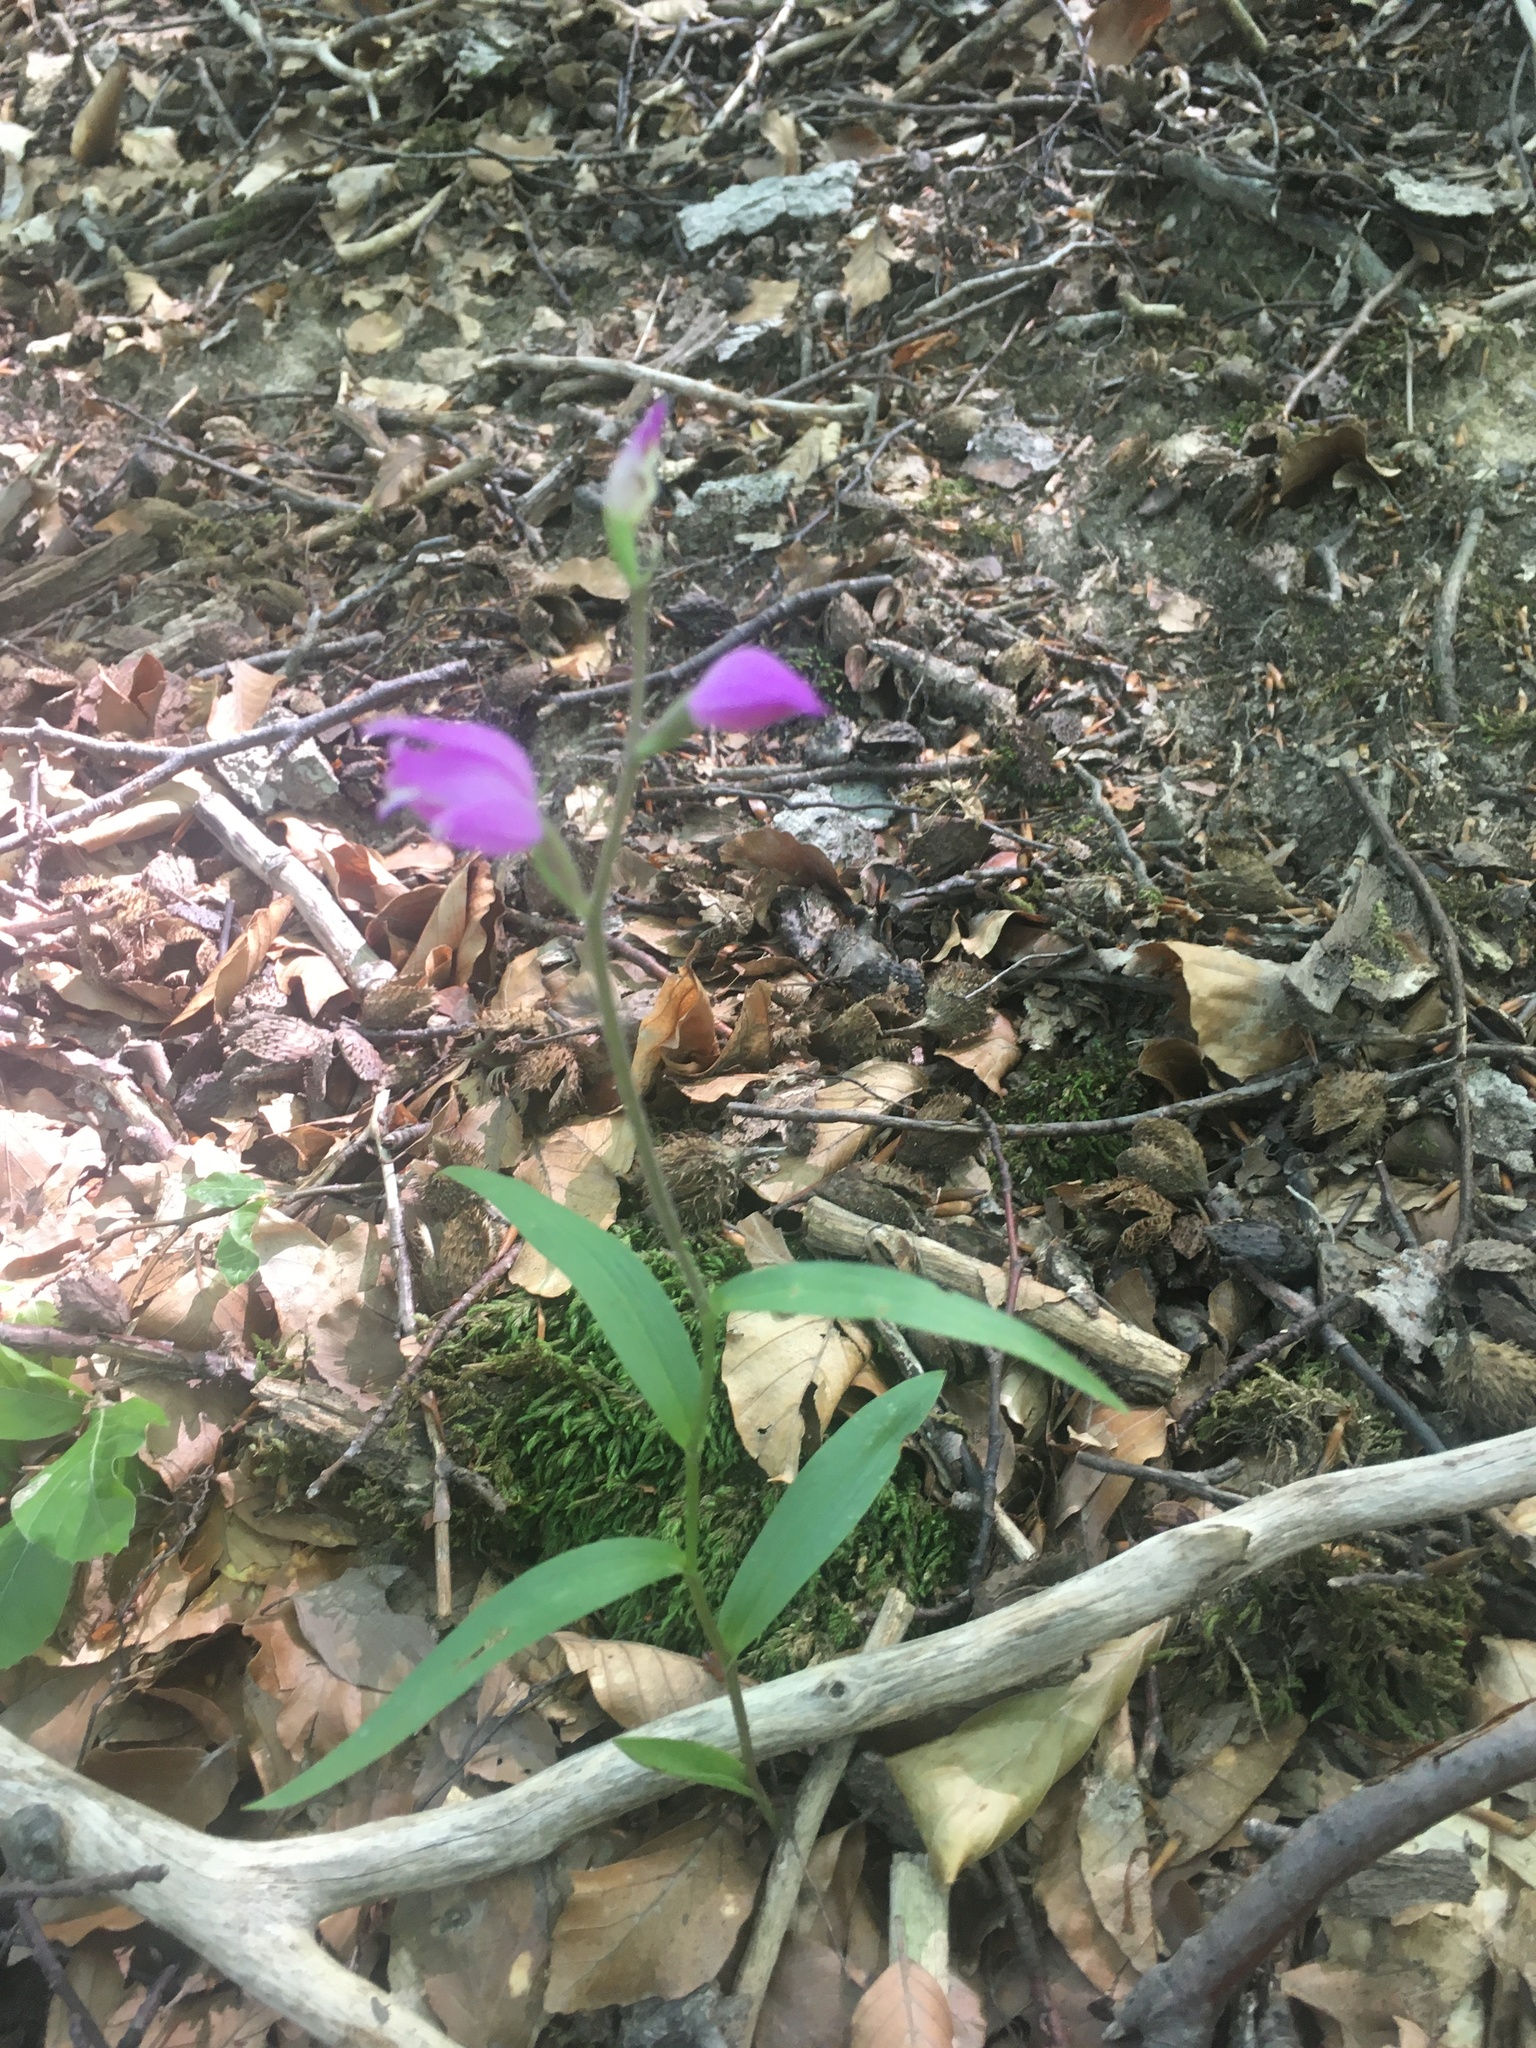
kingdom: Plantae
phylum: Tracheophyta
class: Liliopsida
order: Asparagales
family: Orchidaceae
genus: Cephalanthera
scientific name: Cephalanthera rubra
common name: Red helleborine
